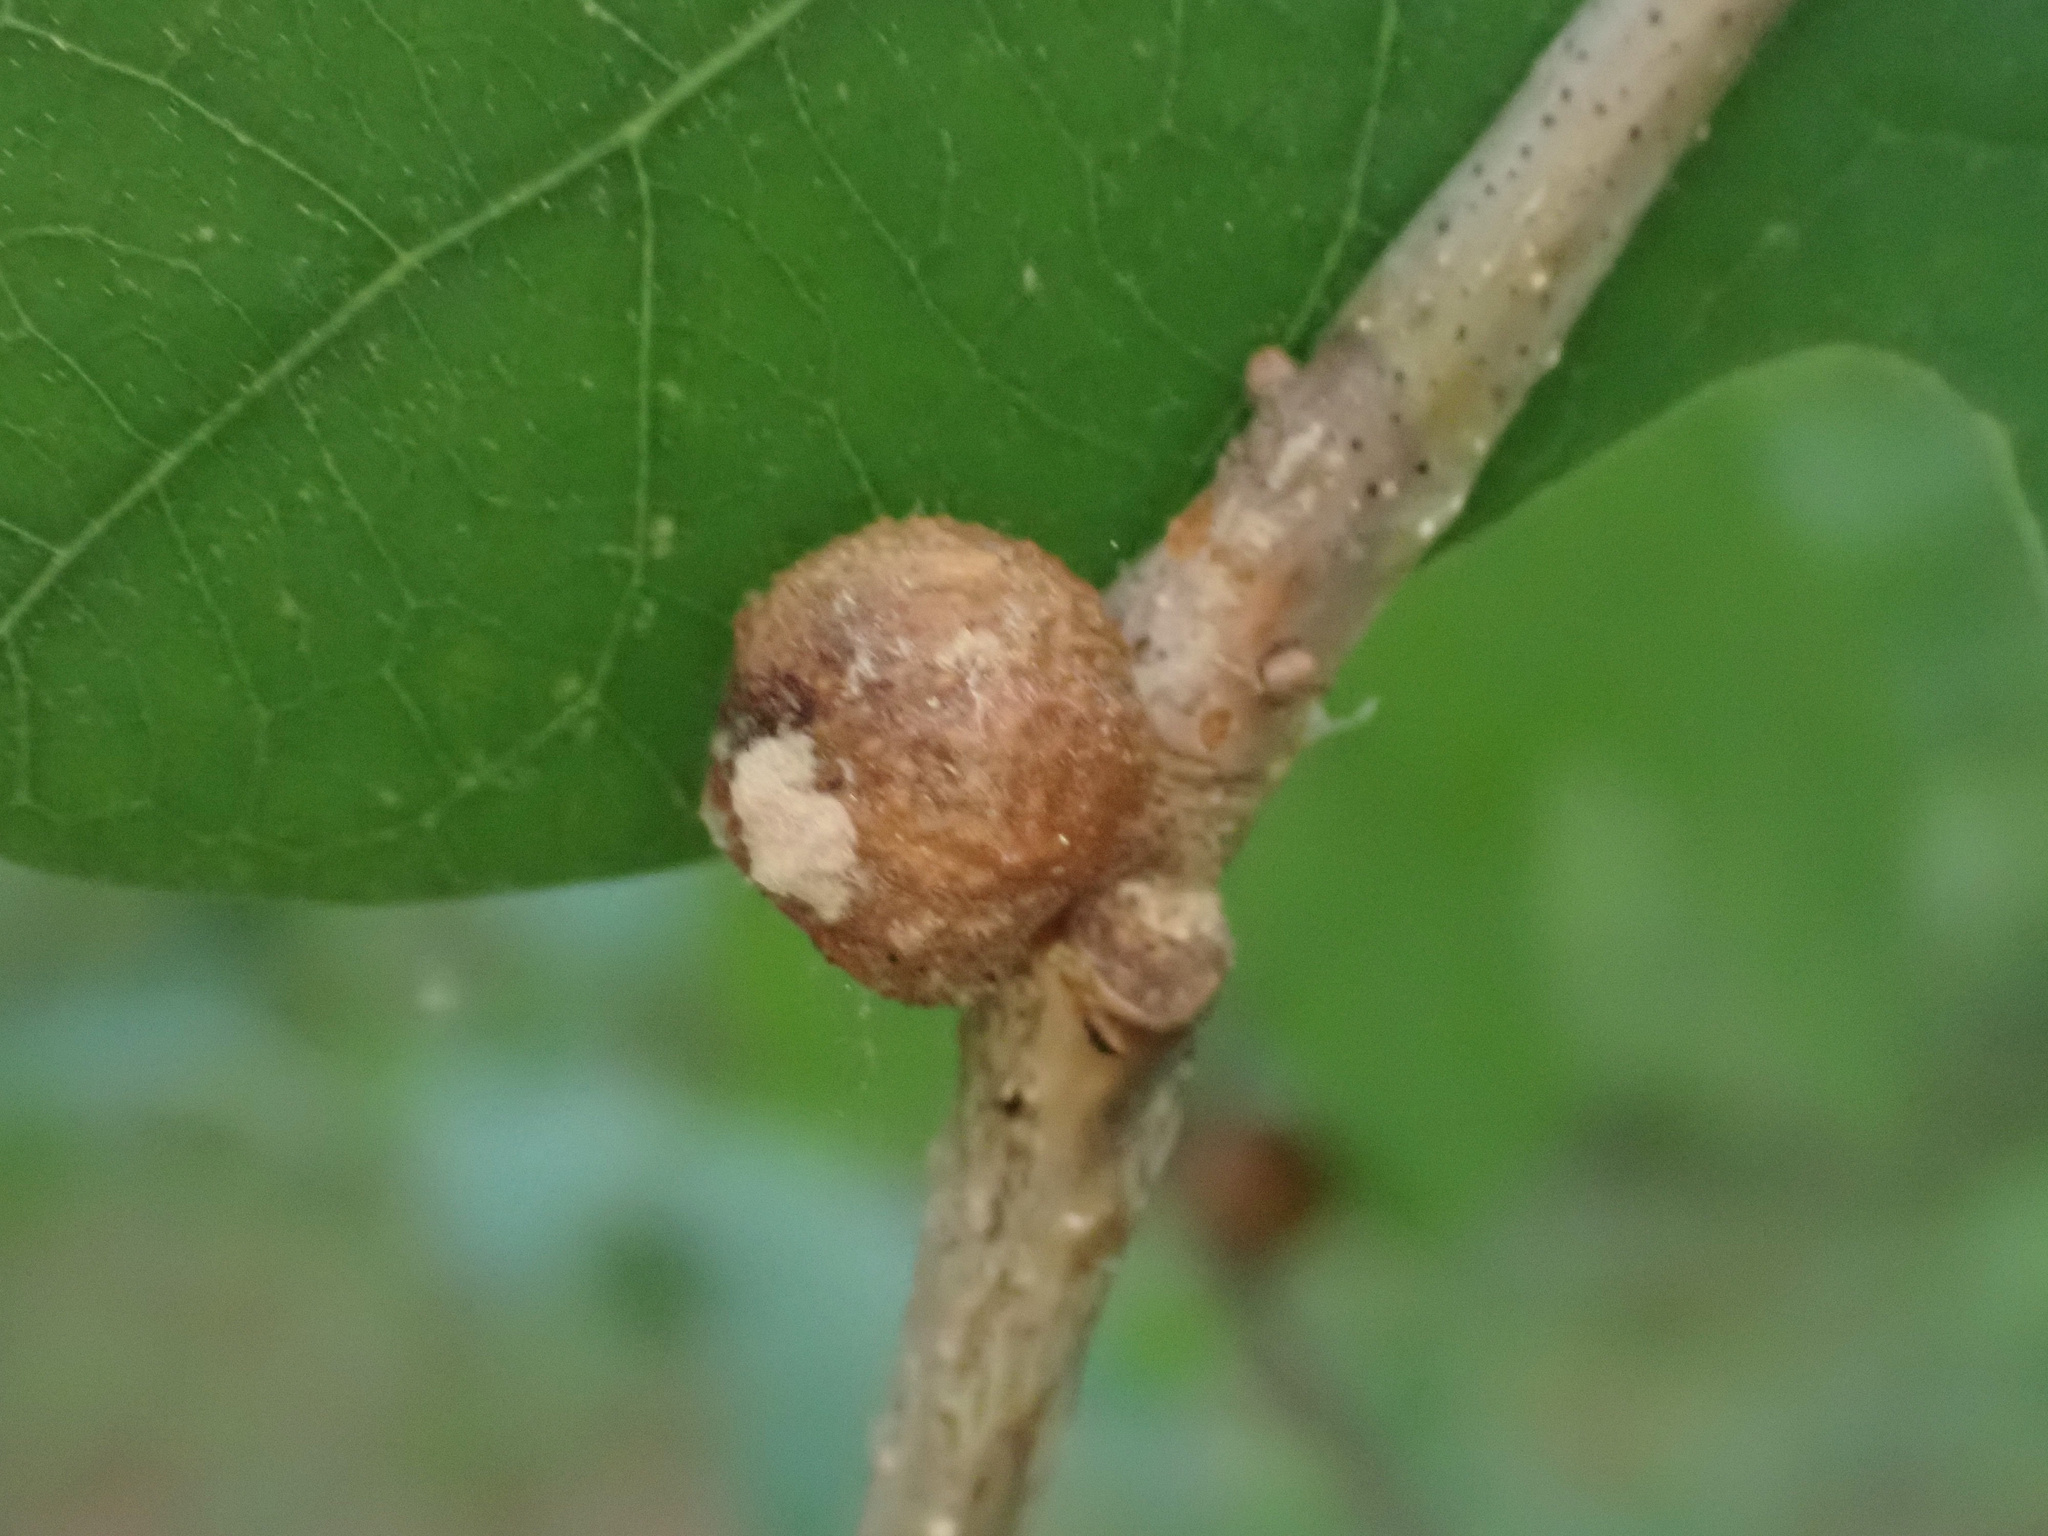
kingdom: Animalia
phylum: Arthropoda
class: Insecta
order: Hymenoptera
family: Cynipidae
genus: Disholcaspis
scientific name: Disholcaspis quercusglobulus
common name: Round bullet gall wasp
